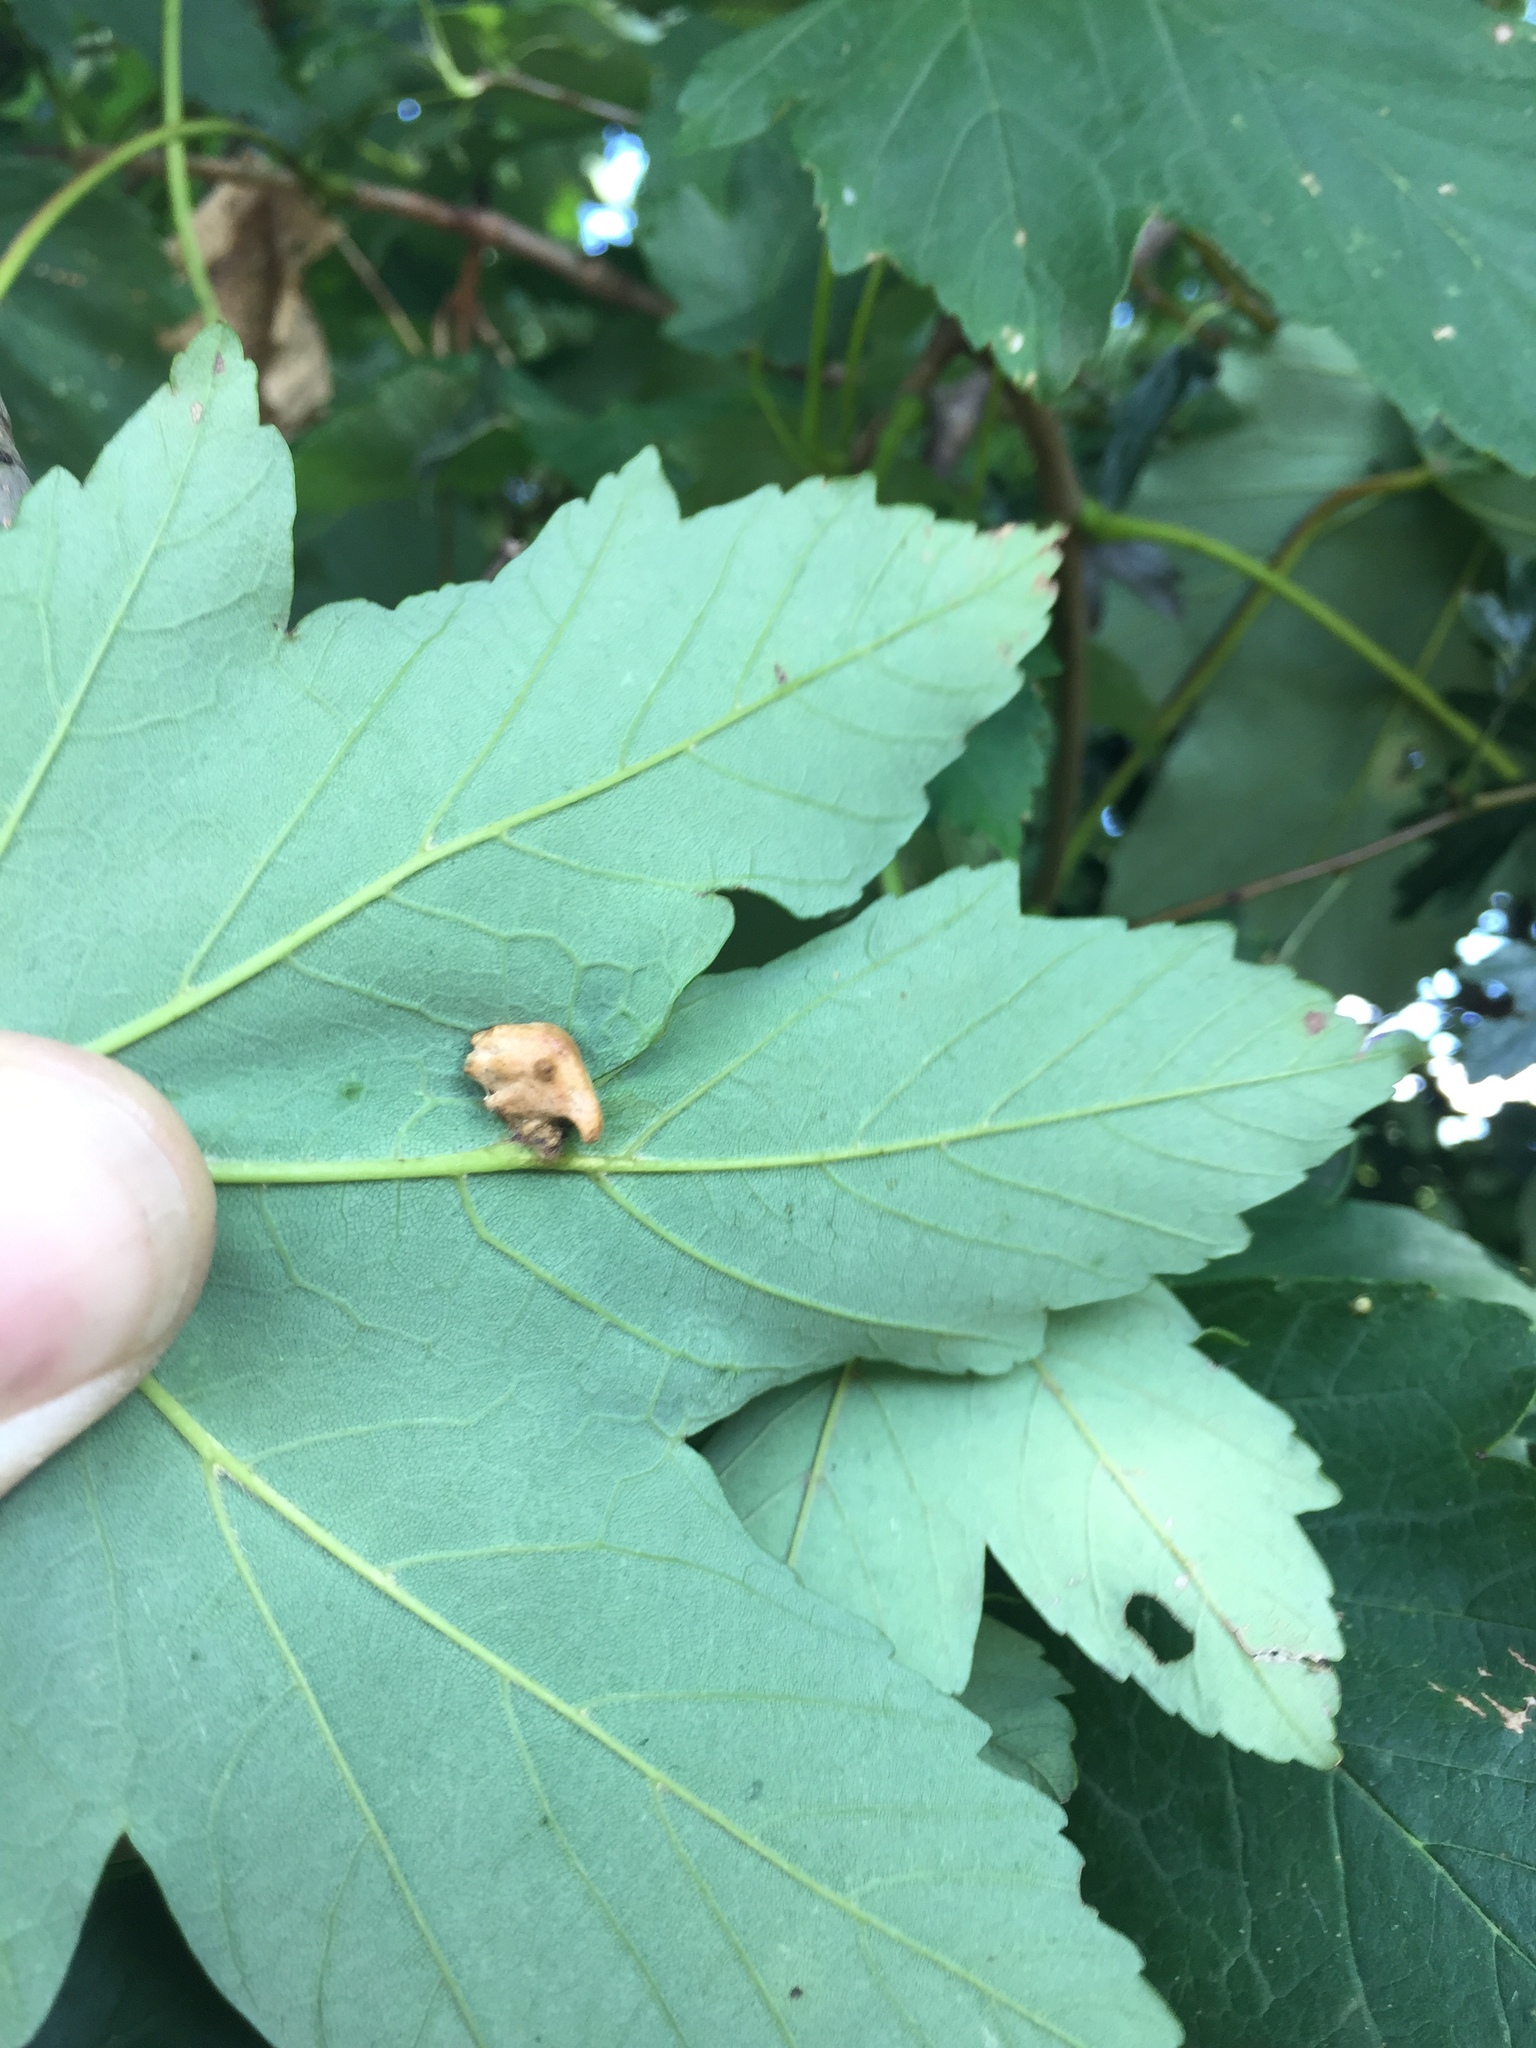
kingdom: Animalia
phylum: Arthropoda
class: Insecta
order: Hymenoptera
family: Eulophidae
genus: Dichatomus
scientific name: Dichatomus acerinus
